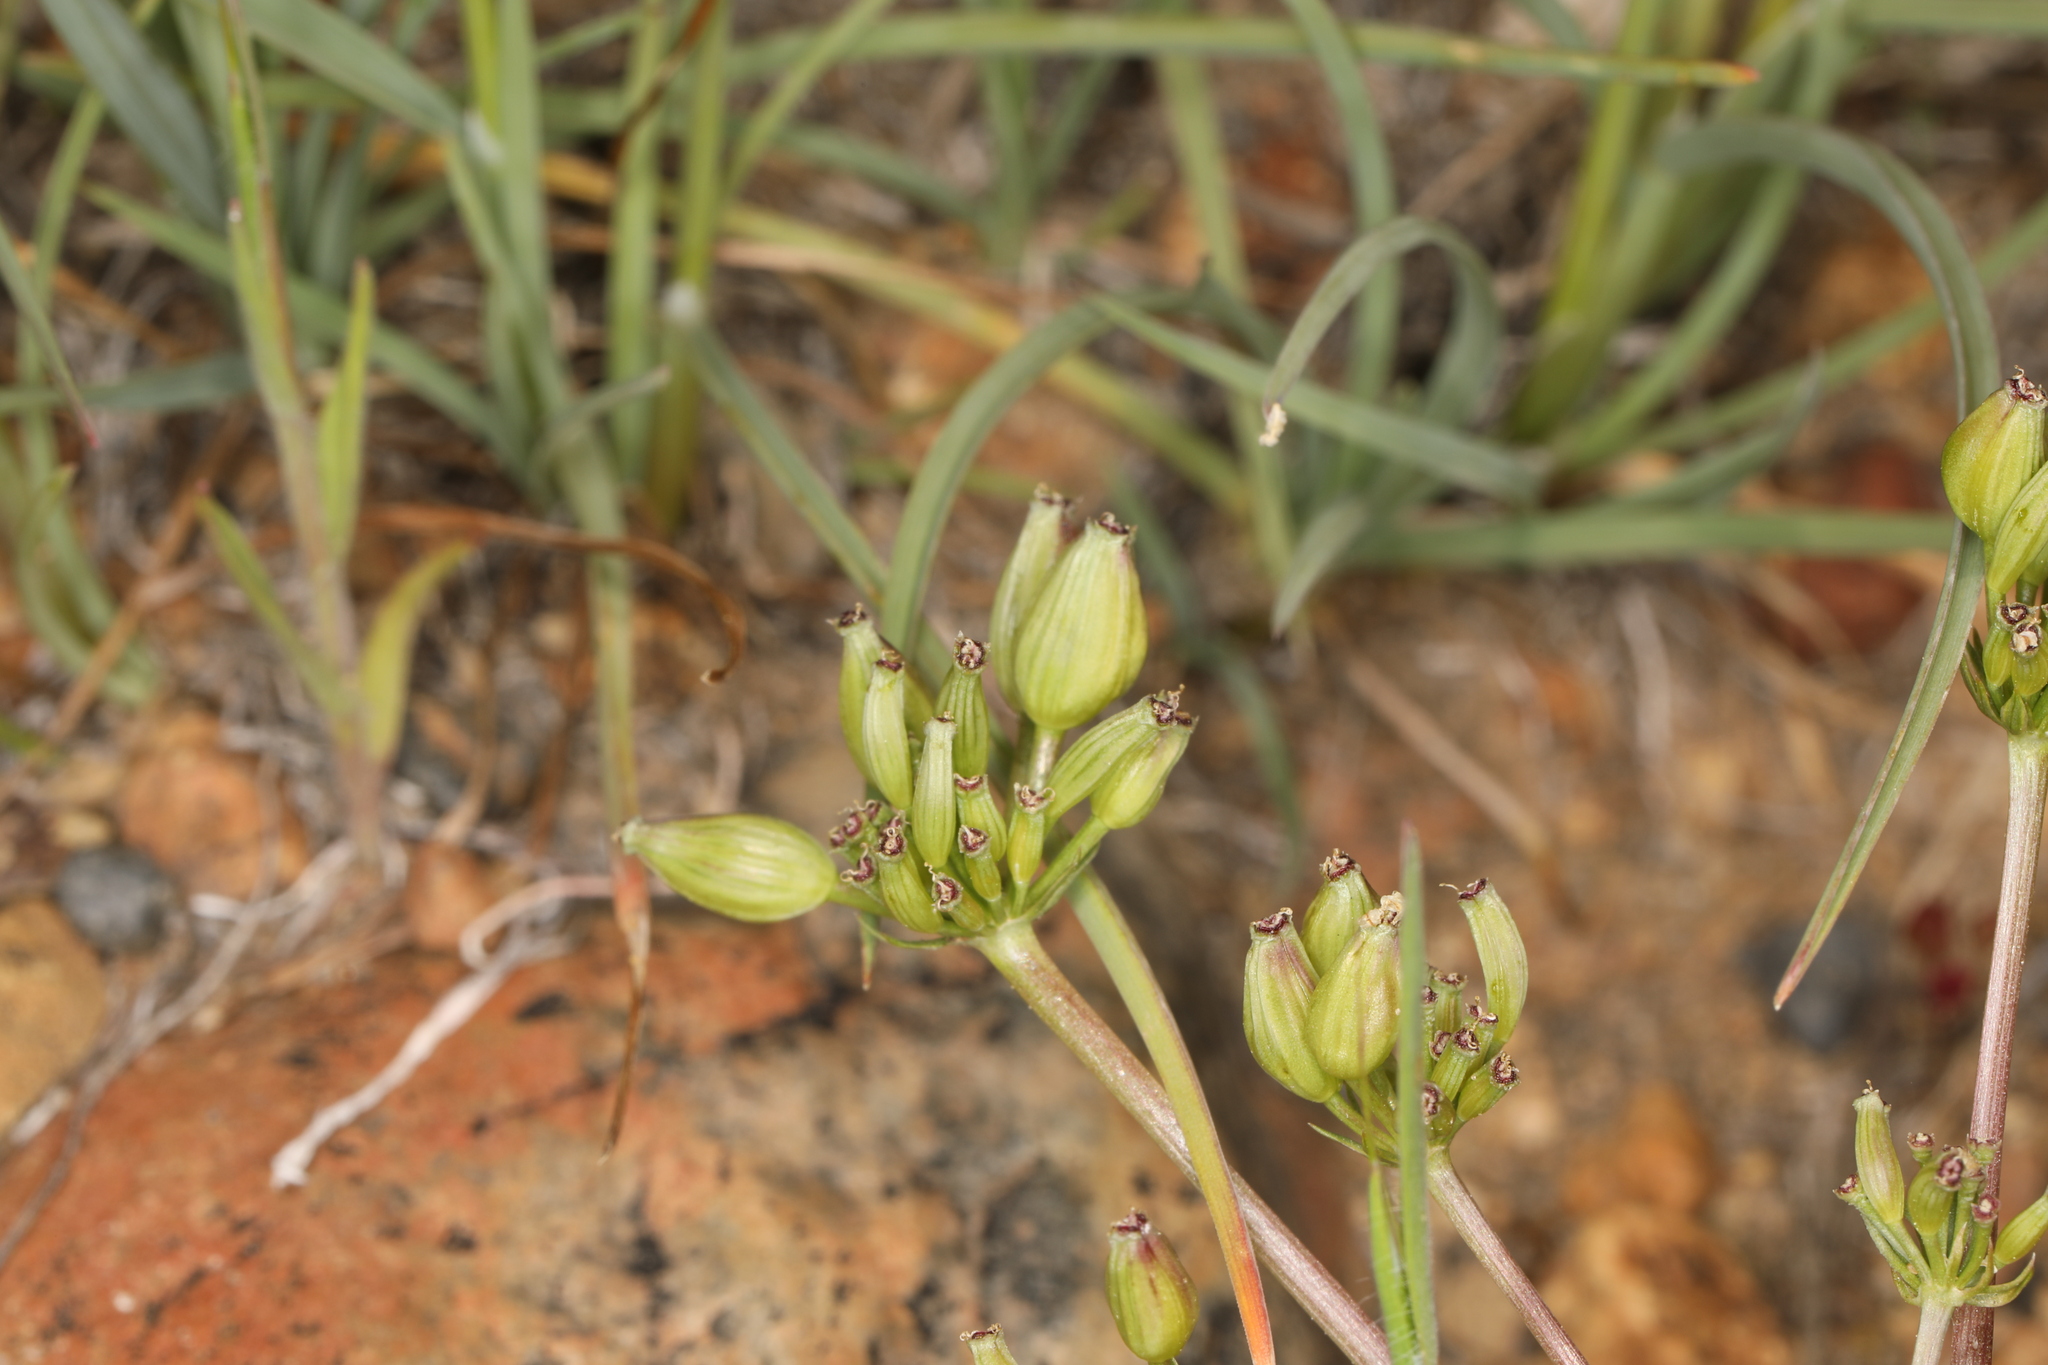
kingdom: Plantae
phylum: Tracheophyta
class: Magnoliopsida
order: Apiales
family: Apiaceae
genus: Lomatium
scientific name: Lomatium austiniae
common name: Plumas lomatium
